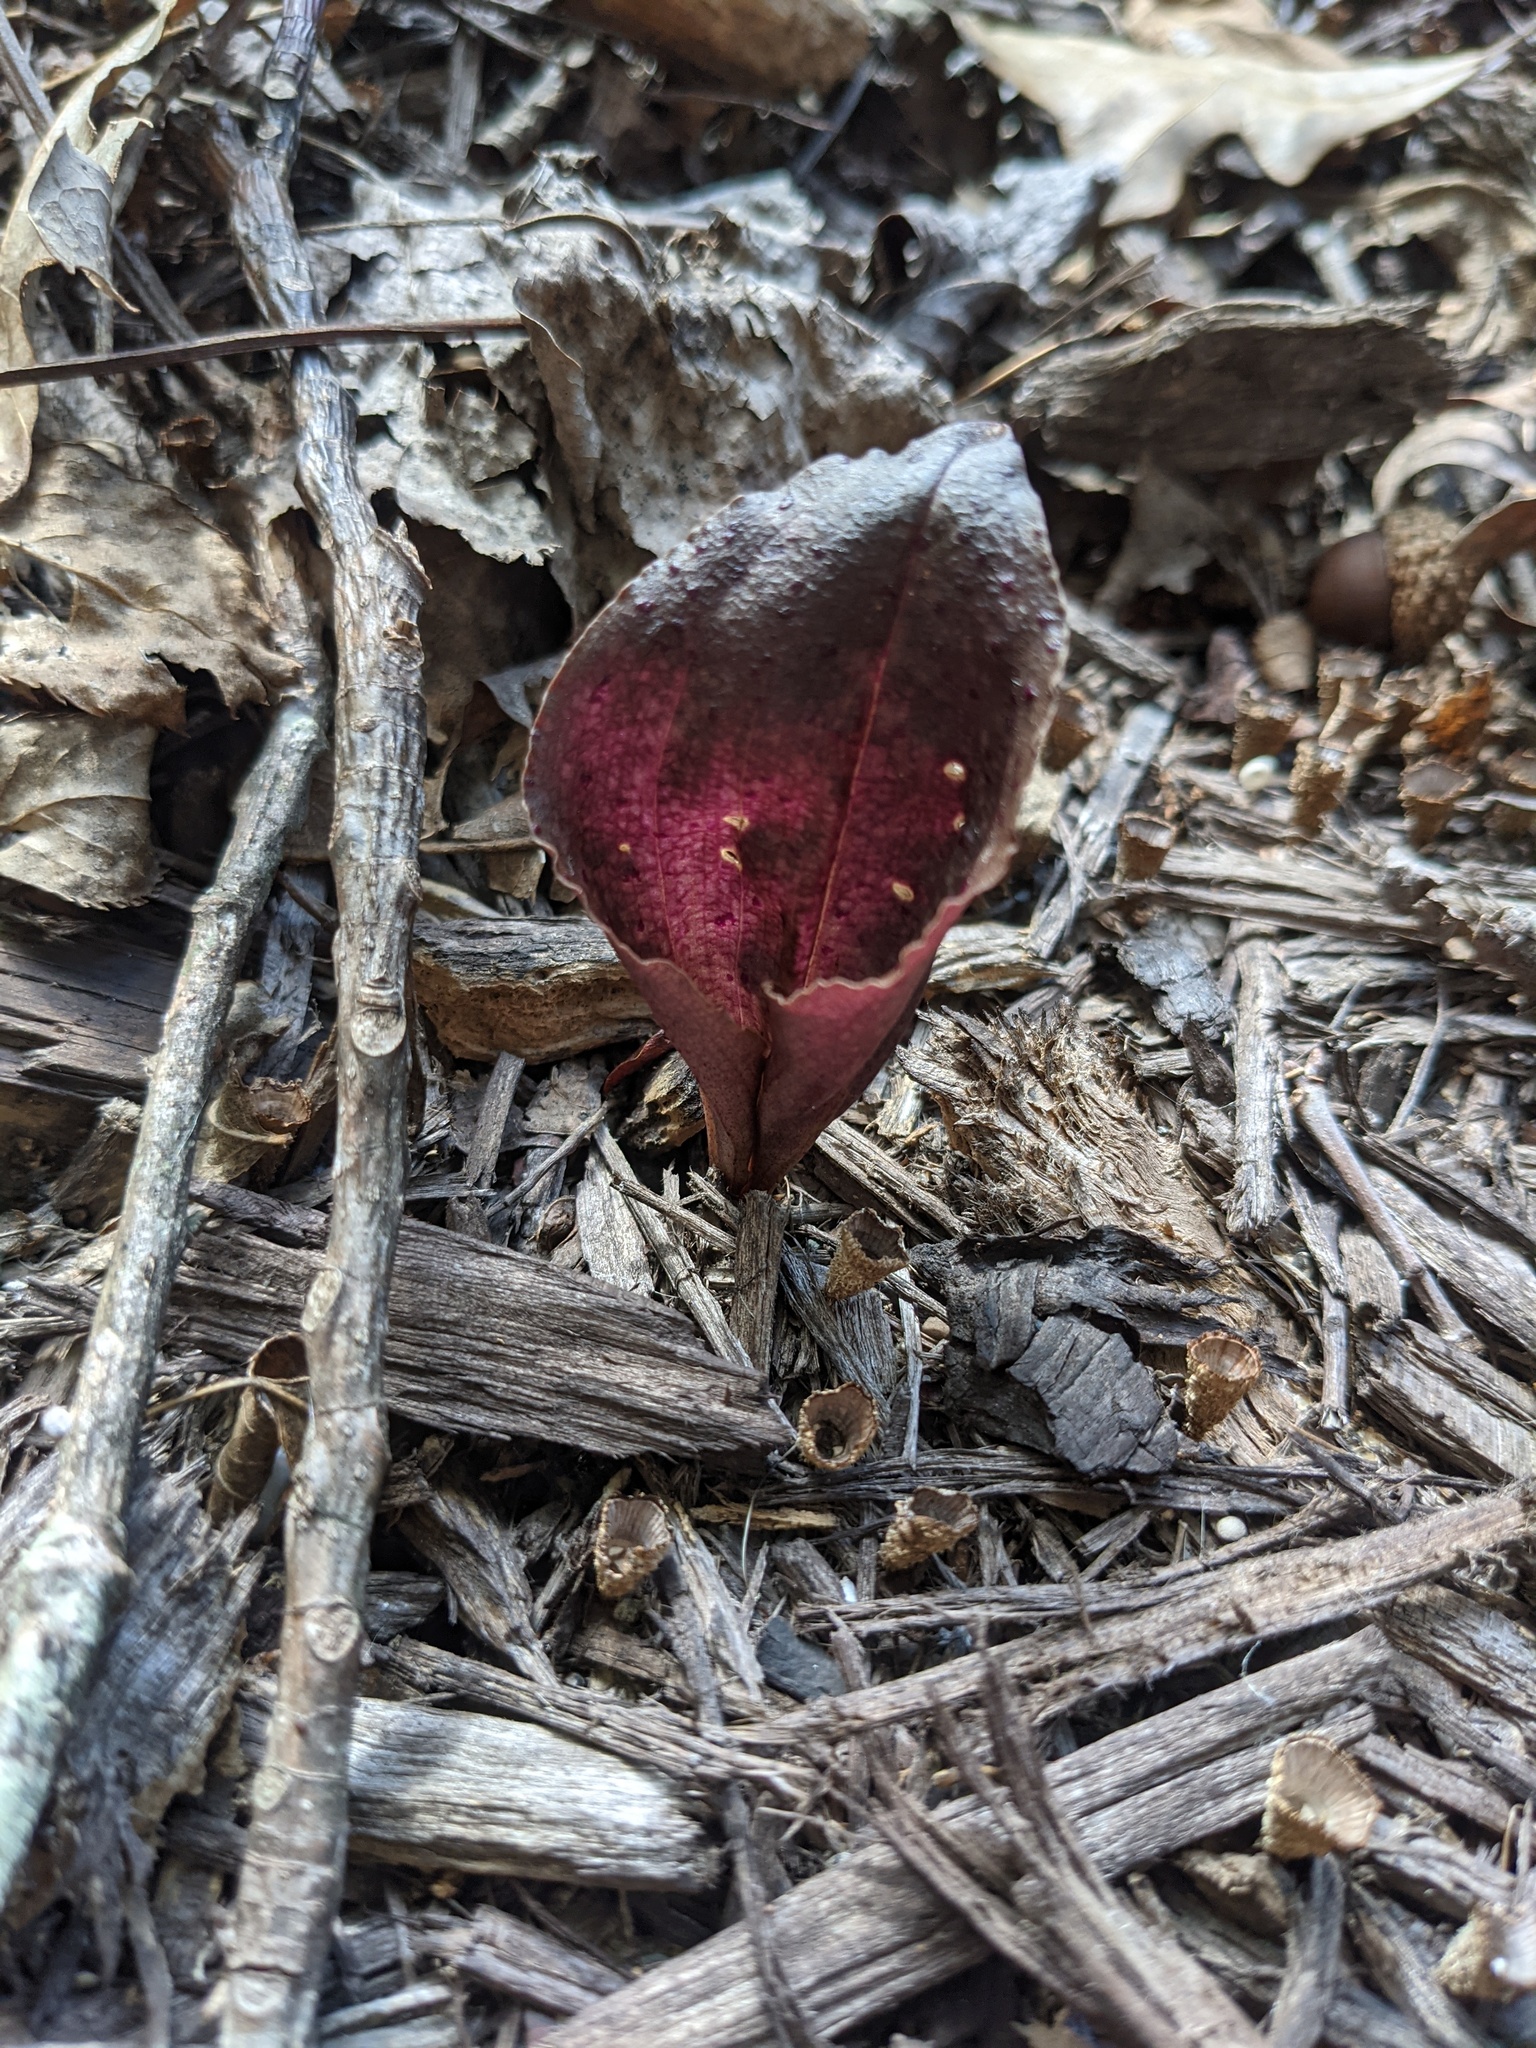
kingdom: Plantae
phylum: Tracheophyta
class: Liliopsida
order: Asparagales
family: Orchidaceae
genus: Tipularia
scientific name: Tipularia discolor
